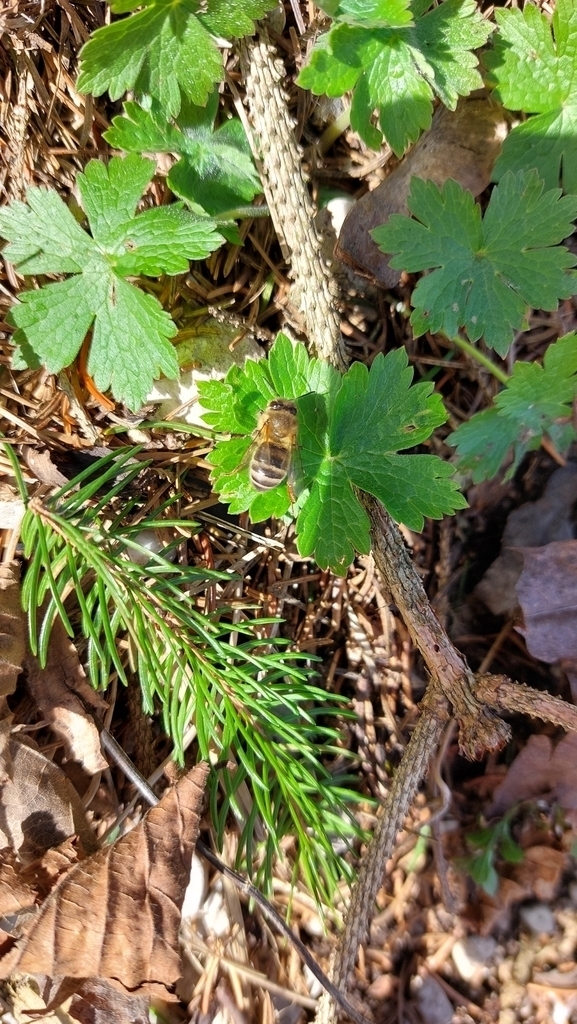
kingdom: Animalia
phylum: Arthropoda
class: Insecta
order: Hymenoptera
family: Apidae
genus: Apis
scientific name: Apis mellifera
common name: Honey bee
